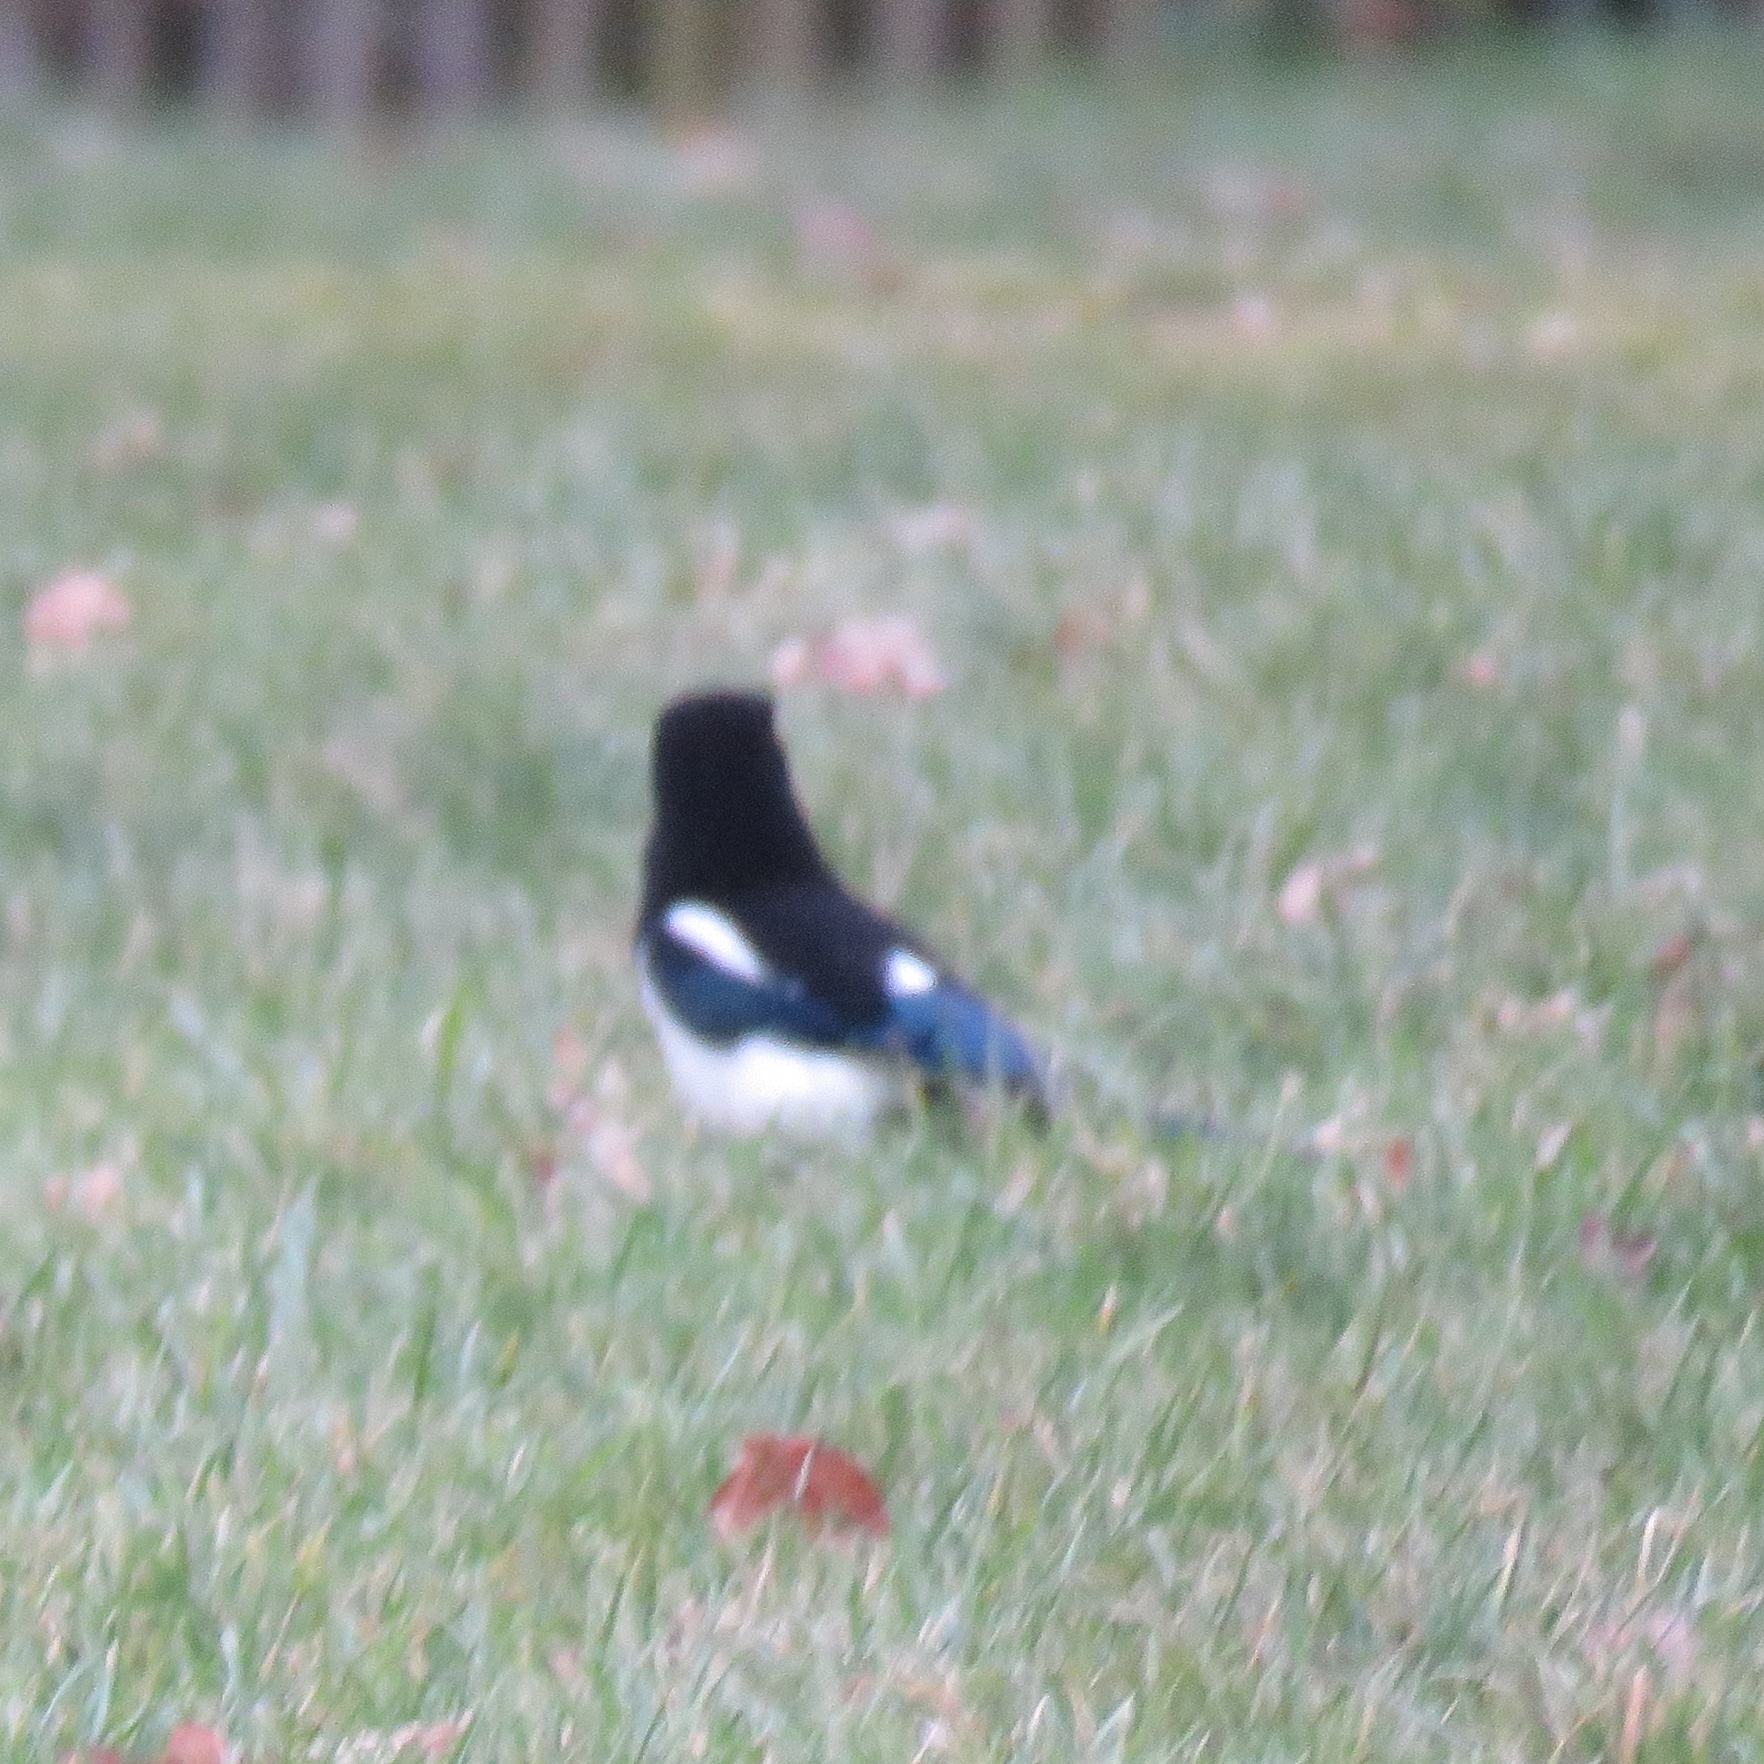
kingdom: Animalia
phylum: Chordata
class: Aves
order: Passeriformes
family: Corvidae
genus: Pica
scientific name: Pica pica
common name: Eurasian magpie
